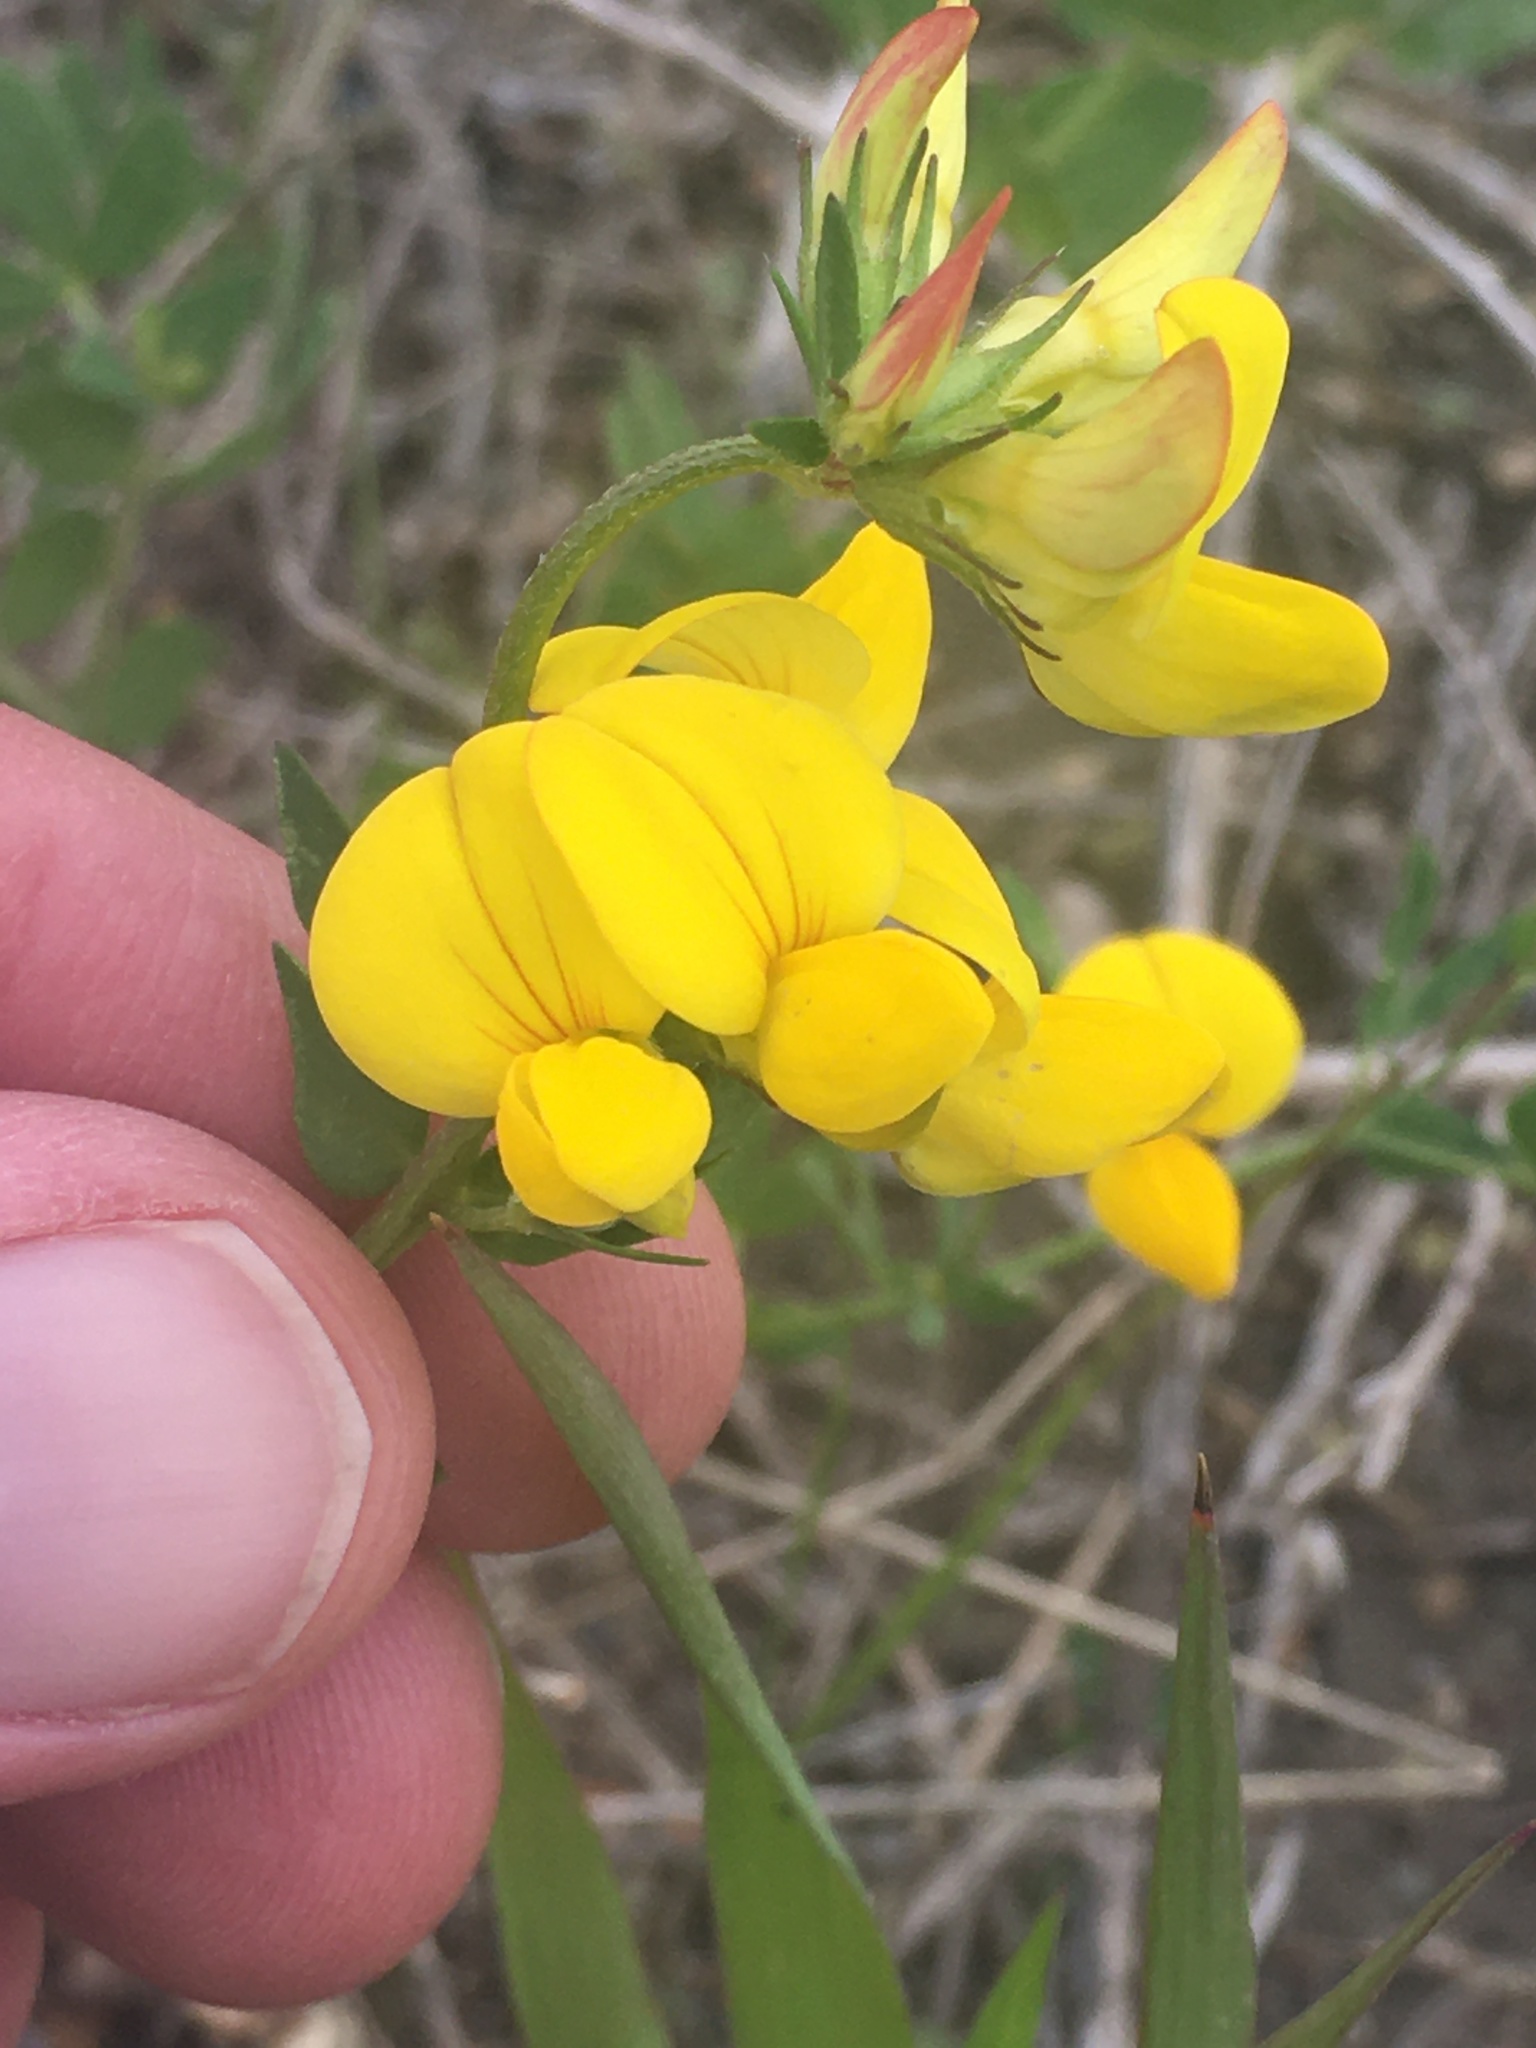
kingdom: Plantae
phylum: Tracheophyta
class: Magnoliopsida
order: Fabales
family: Fabaceae
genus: Lotus
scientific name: Lotus corniculatus
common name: Common bird's-foot-trefoil
